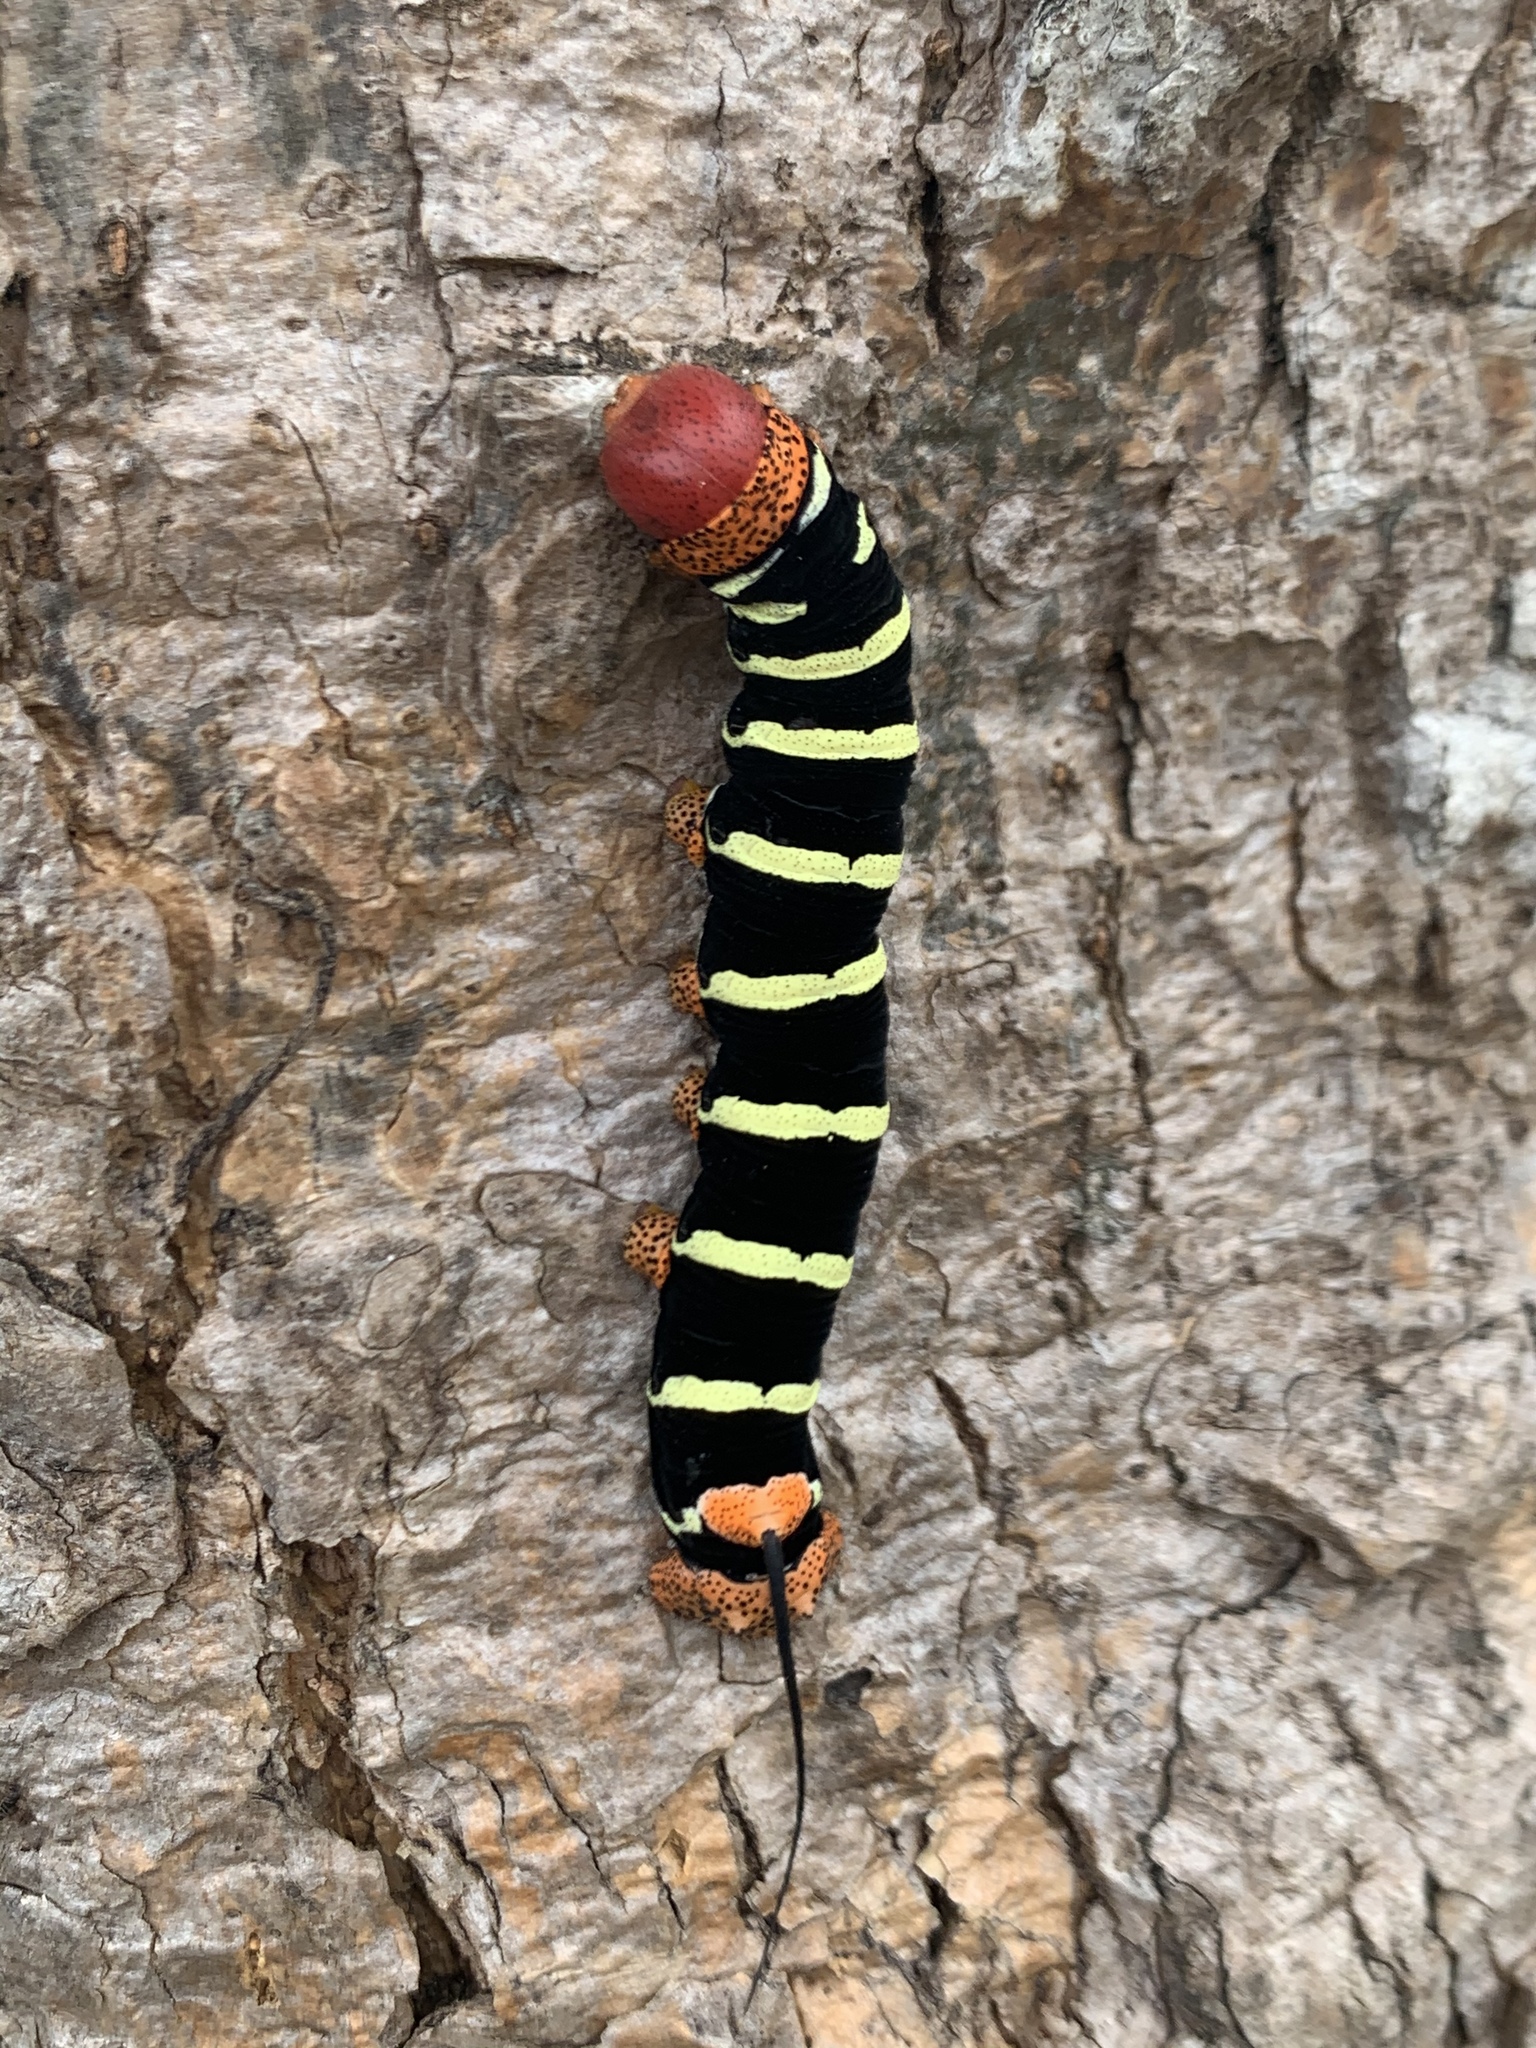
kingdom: Animalia
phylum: Arthropoda
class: Insecta
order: Lepidoptera
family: Sphingidae
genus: Pseudosphinx
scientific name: Pseudosphinx tetrio
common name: Tetrio sphinx
